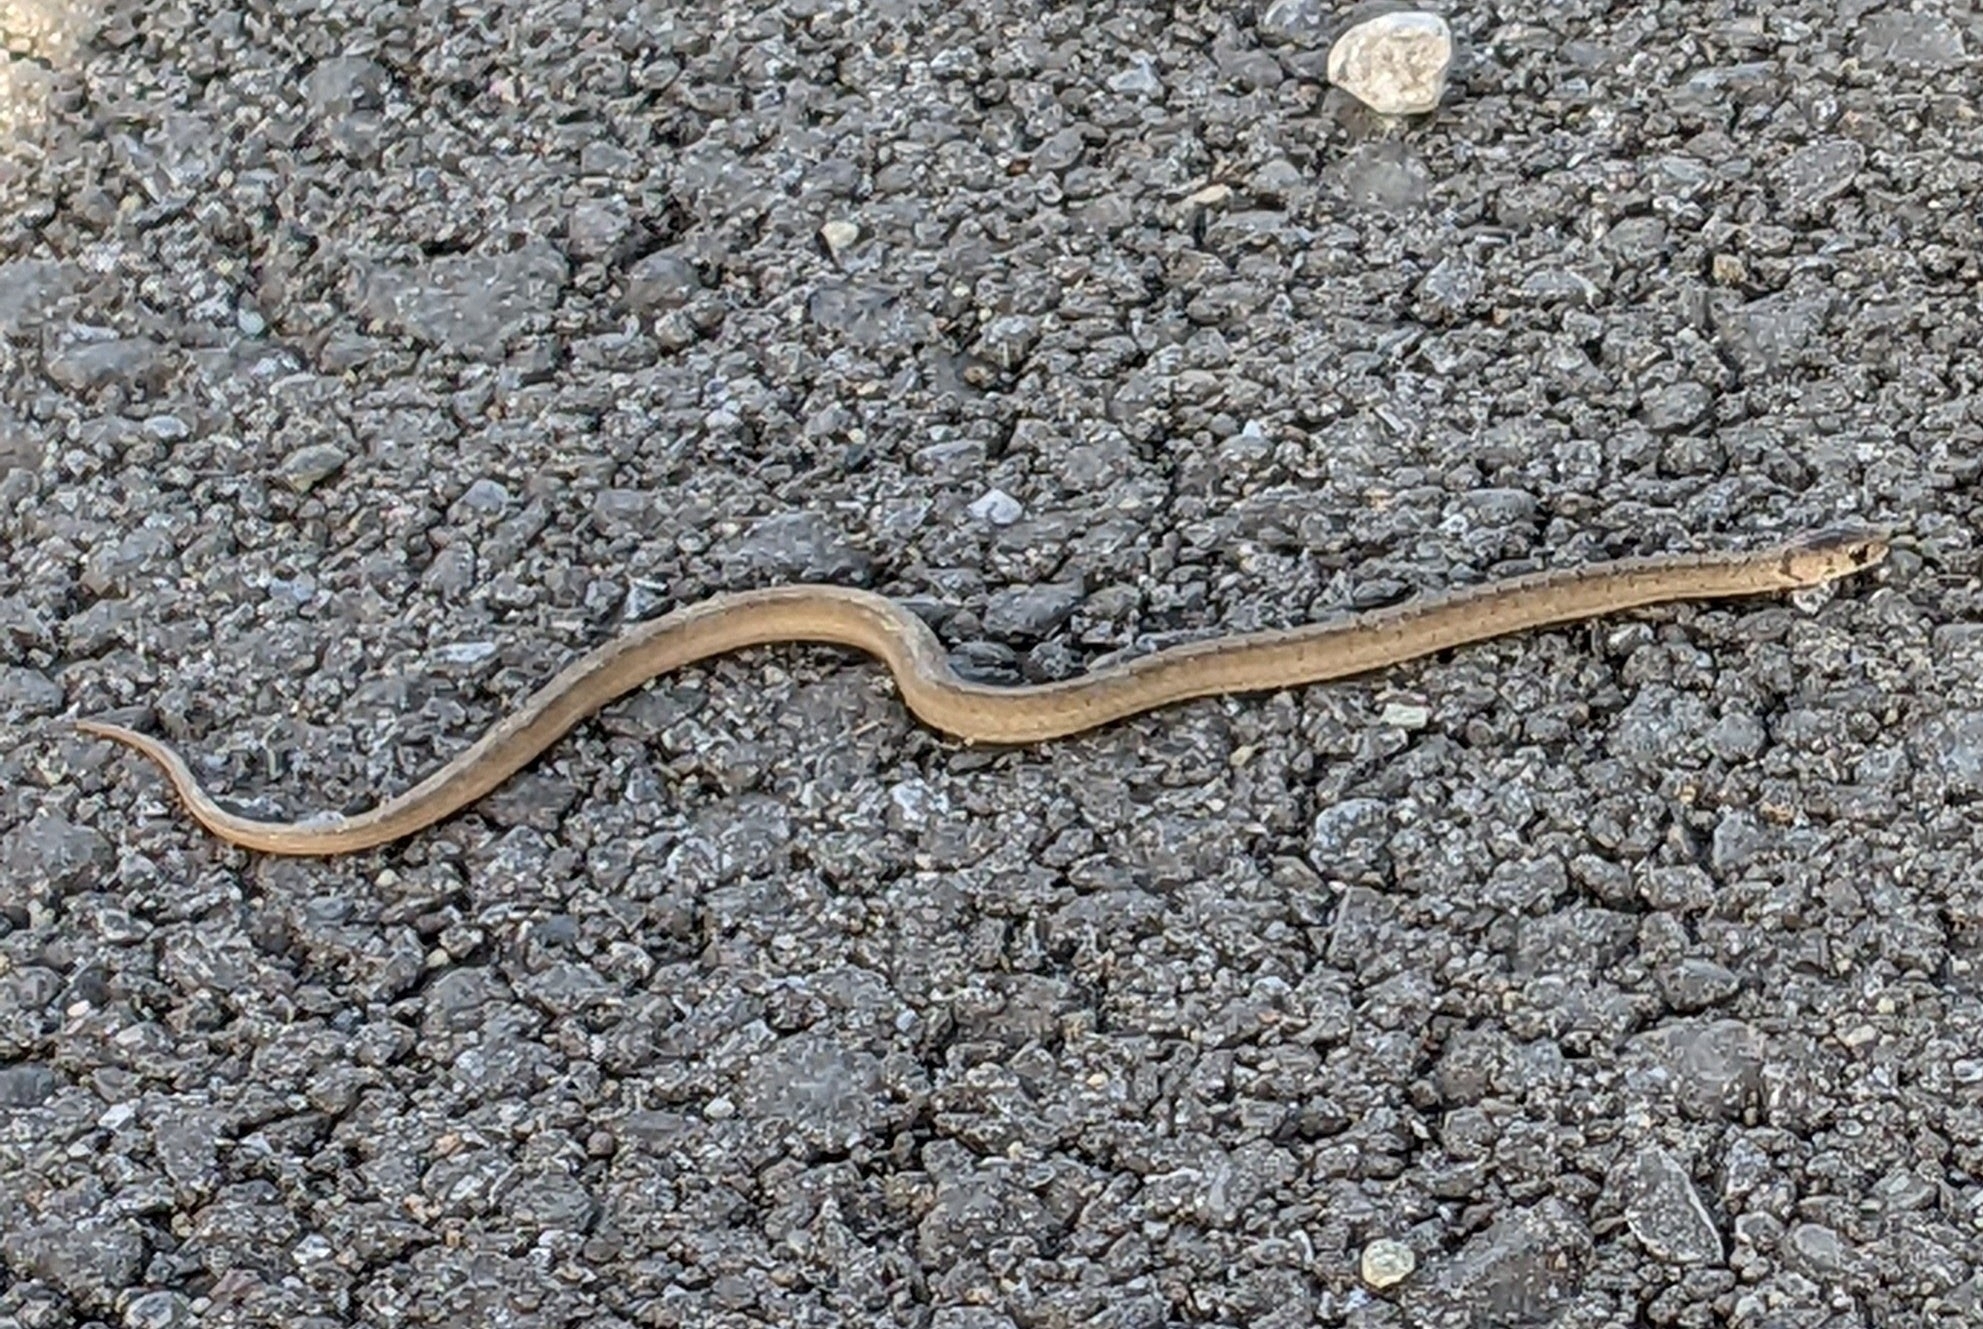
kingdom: Animalia
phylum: Chordata
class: Squamata
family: Colubridae
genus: Storeria
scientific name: Storeria dekayi
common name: (dekay’s) brown snake
